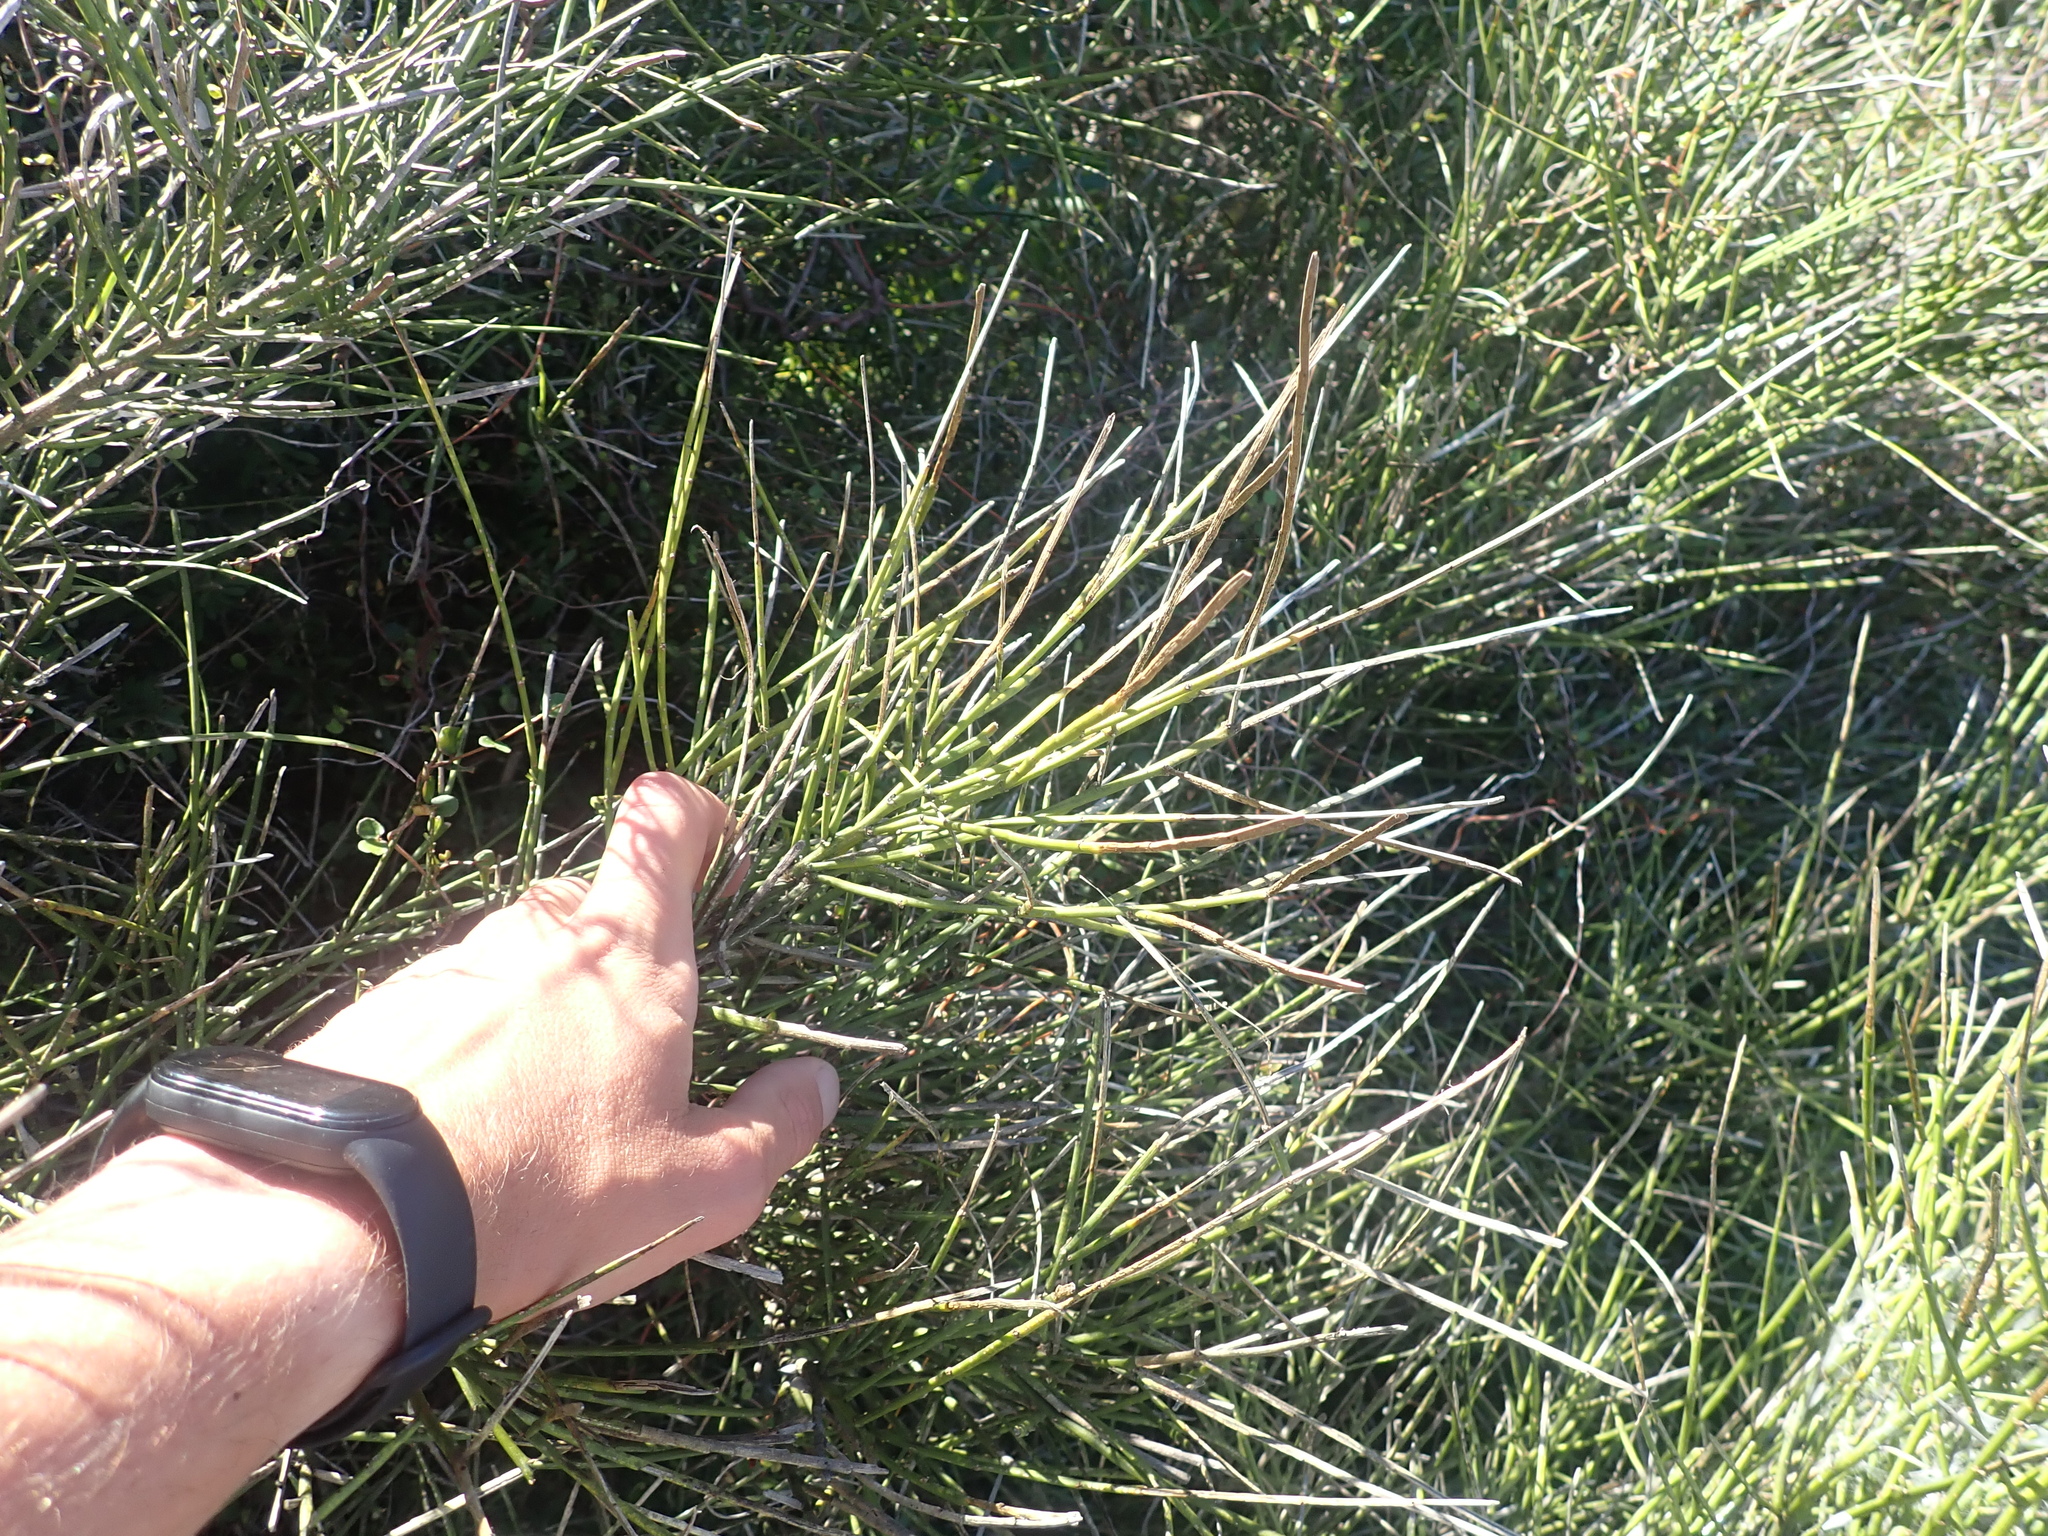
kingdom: Plantae
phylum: Tracheophyta
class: Magnoliopsida
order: Fabales
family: Fabaceae
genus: Carmichaelia
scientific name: Carmichaelia muritai
